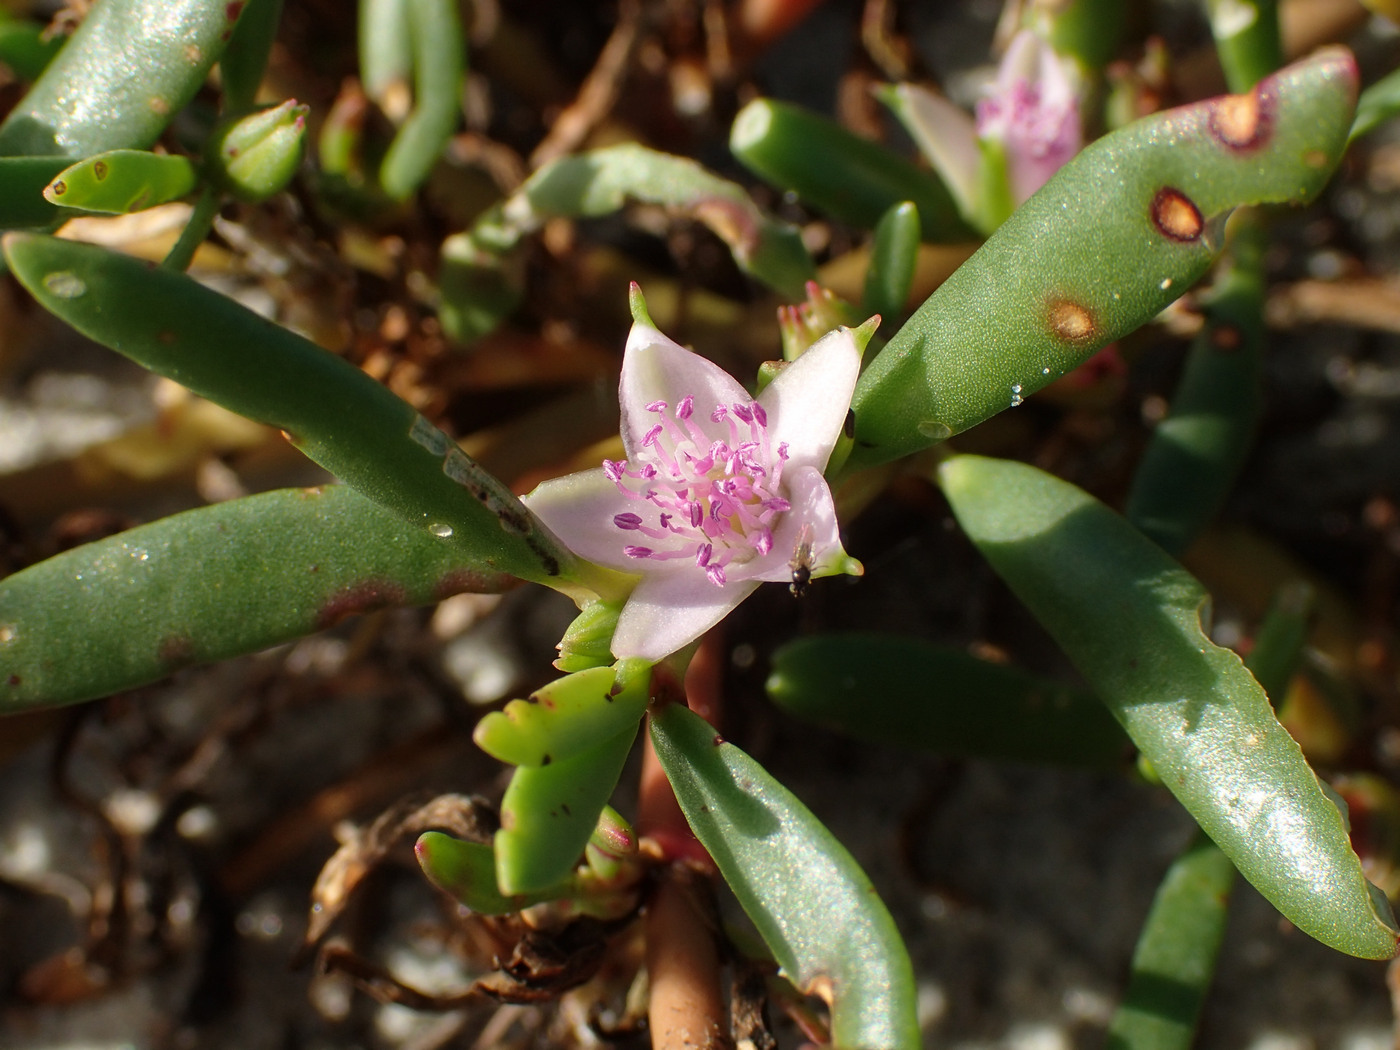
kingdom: Plantae
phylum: Tracheophyta
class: Magnoliopsida
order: Caryophyllales
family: Aizoaceae
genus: Sesuvium
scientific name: Sesuvium portulacastrum
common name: Sea-purslane
